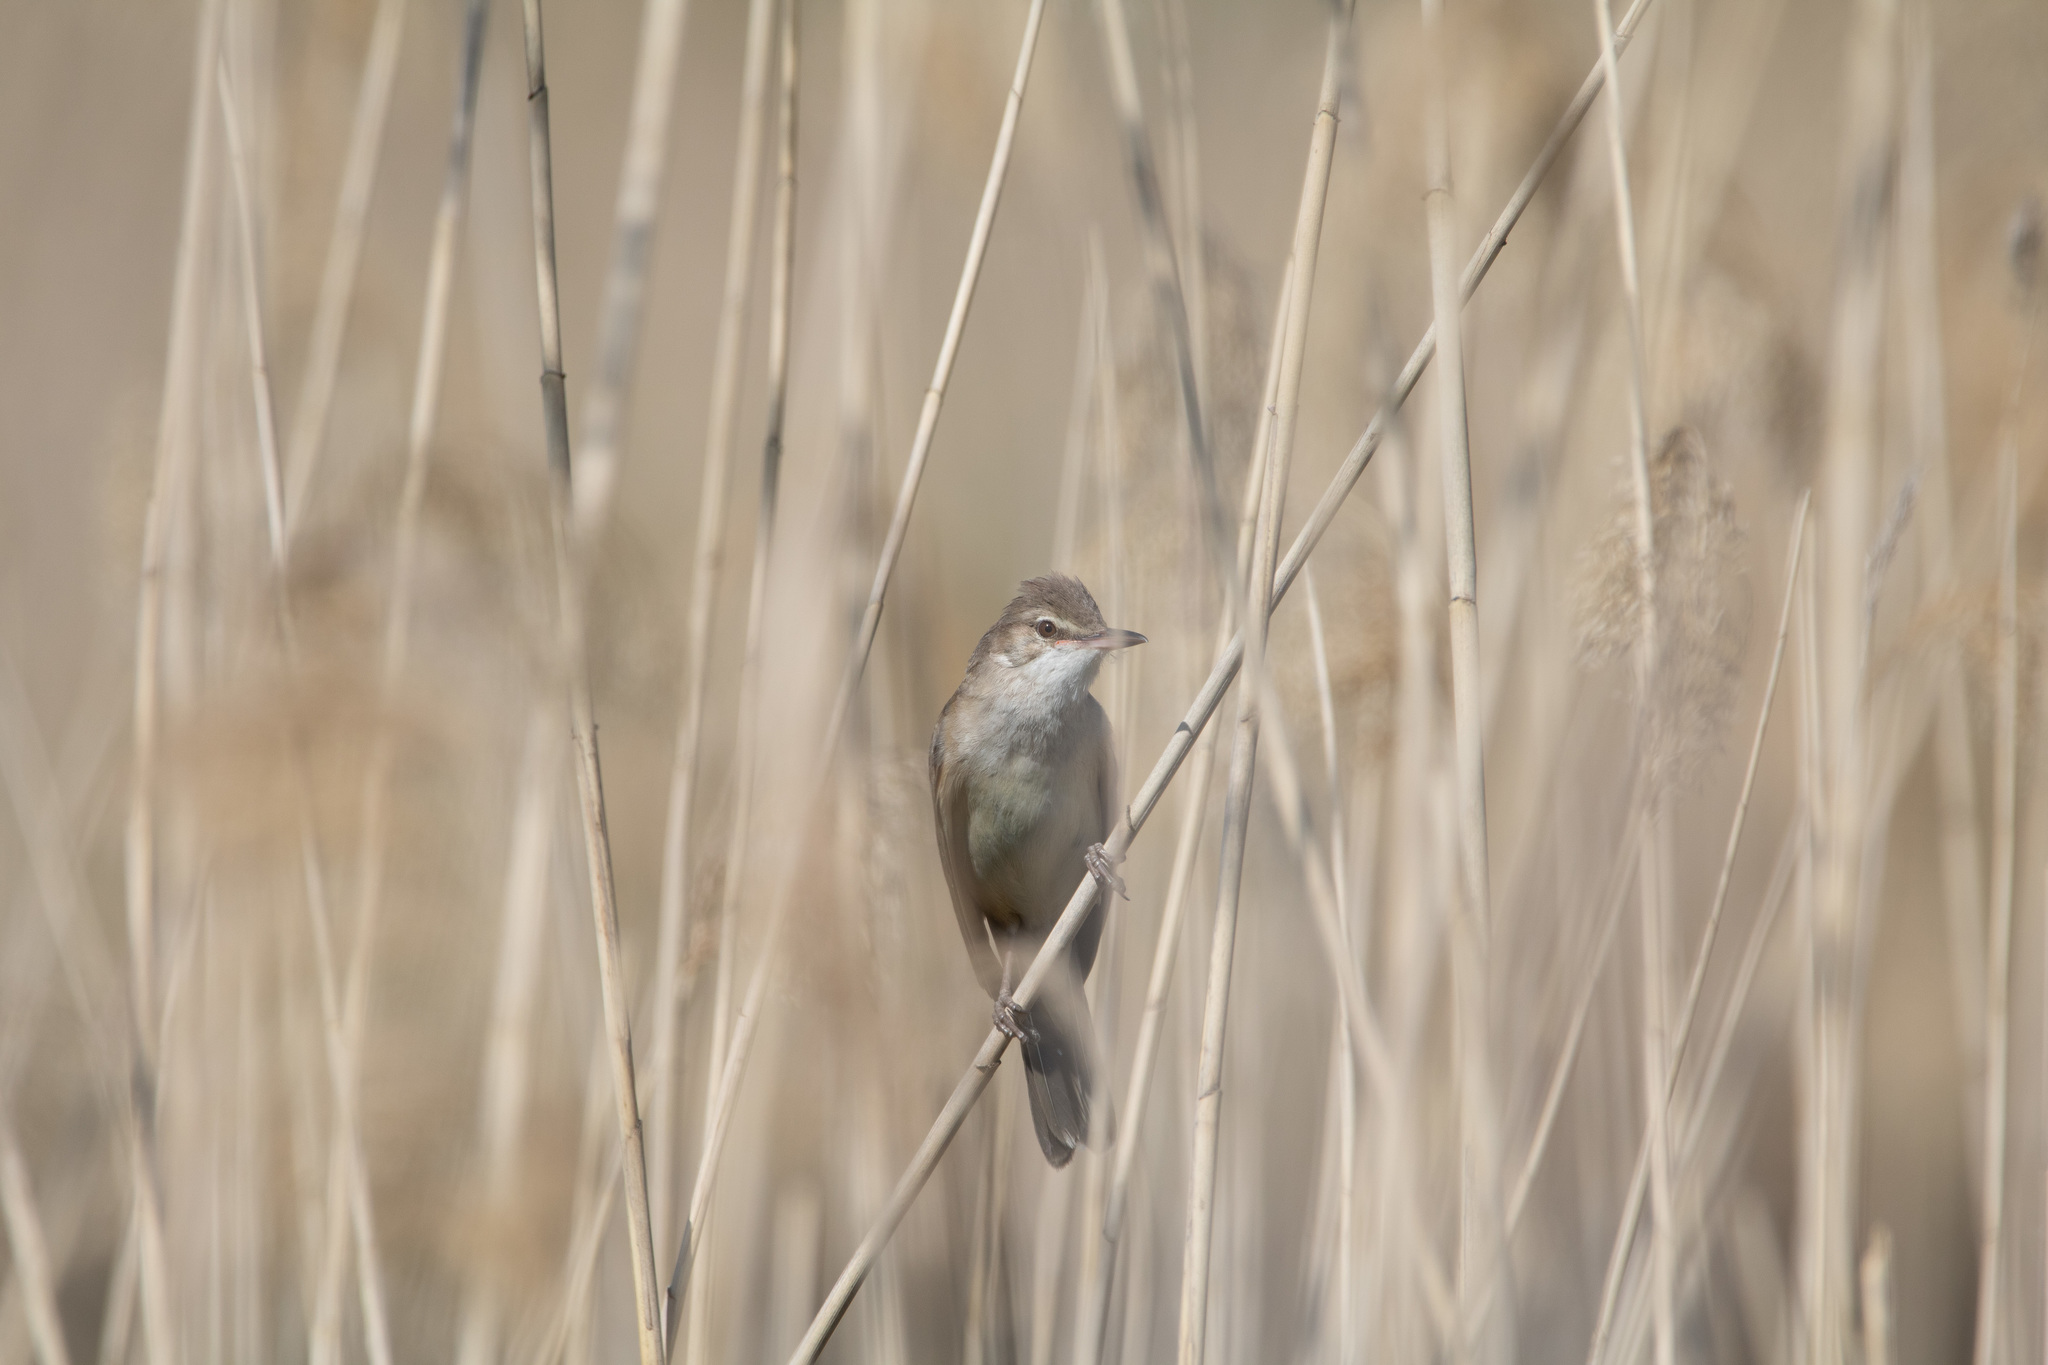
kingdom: Animalia
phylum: Chordata
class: Aves
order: Passeriformes
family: Acrocephalidae
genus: Acrocephalus
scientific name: Acrocephalus arundinaceus
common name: Great reed warbler
